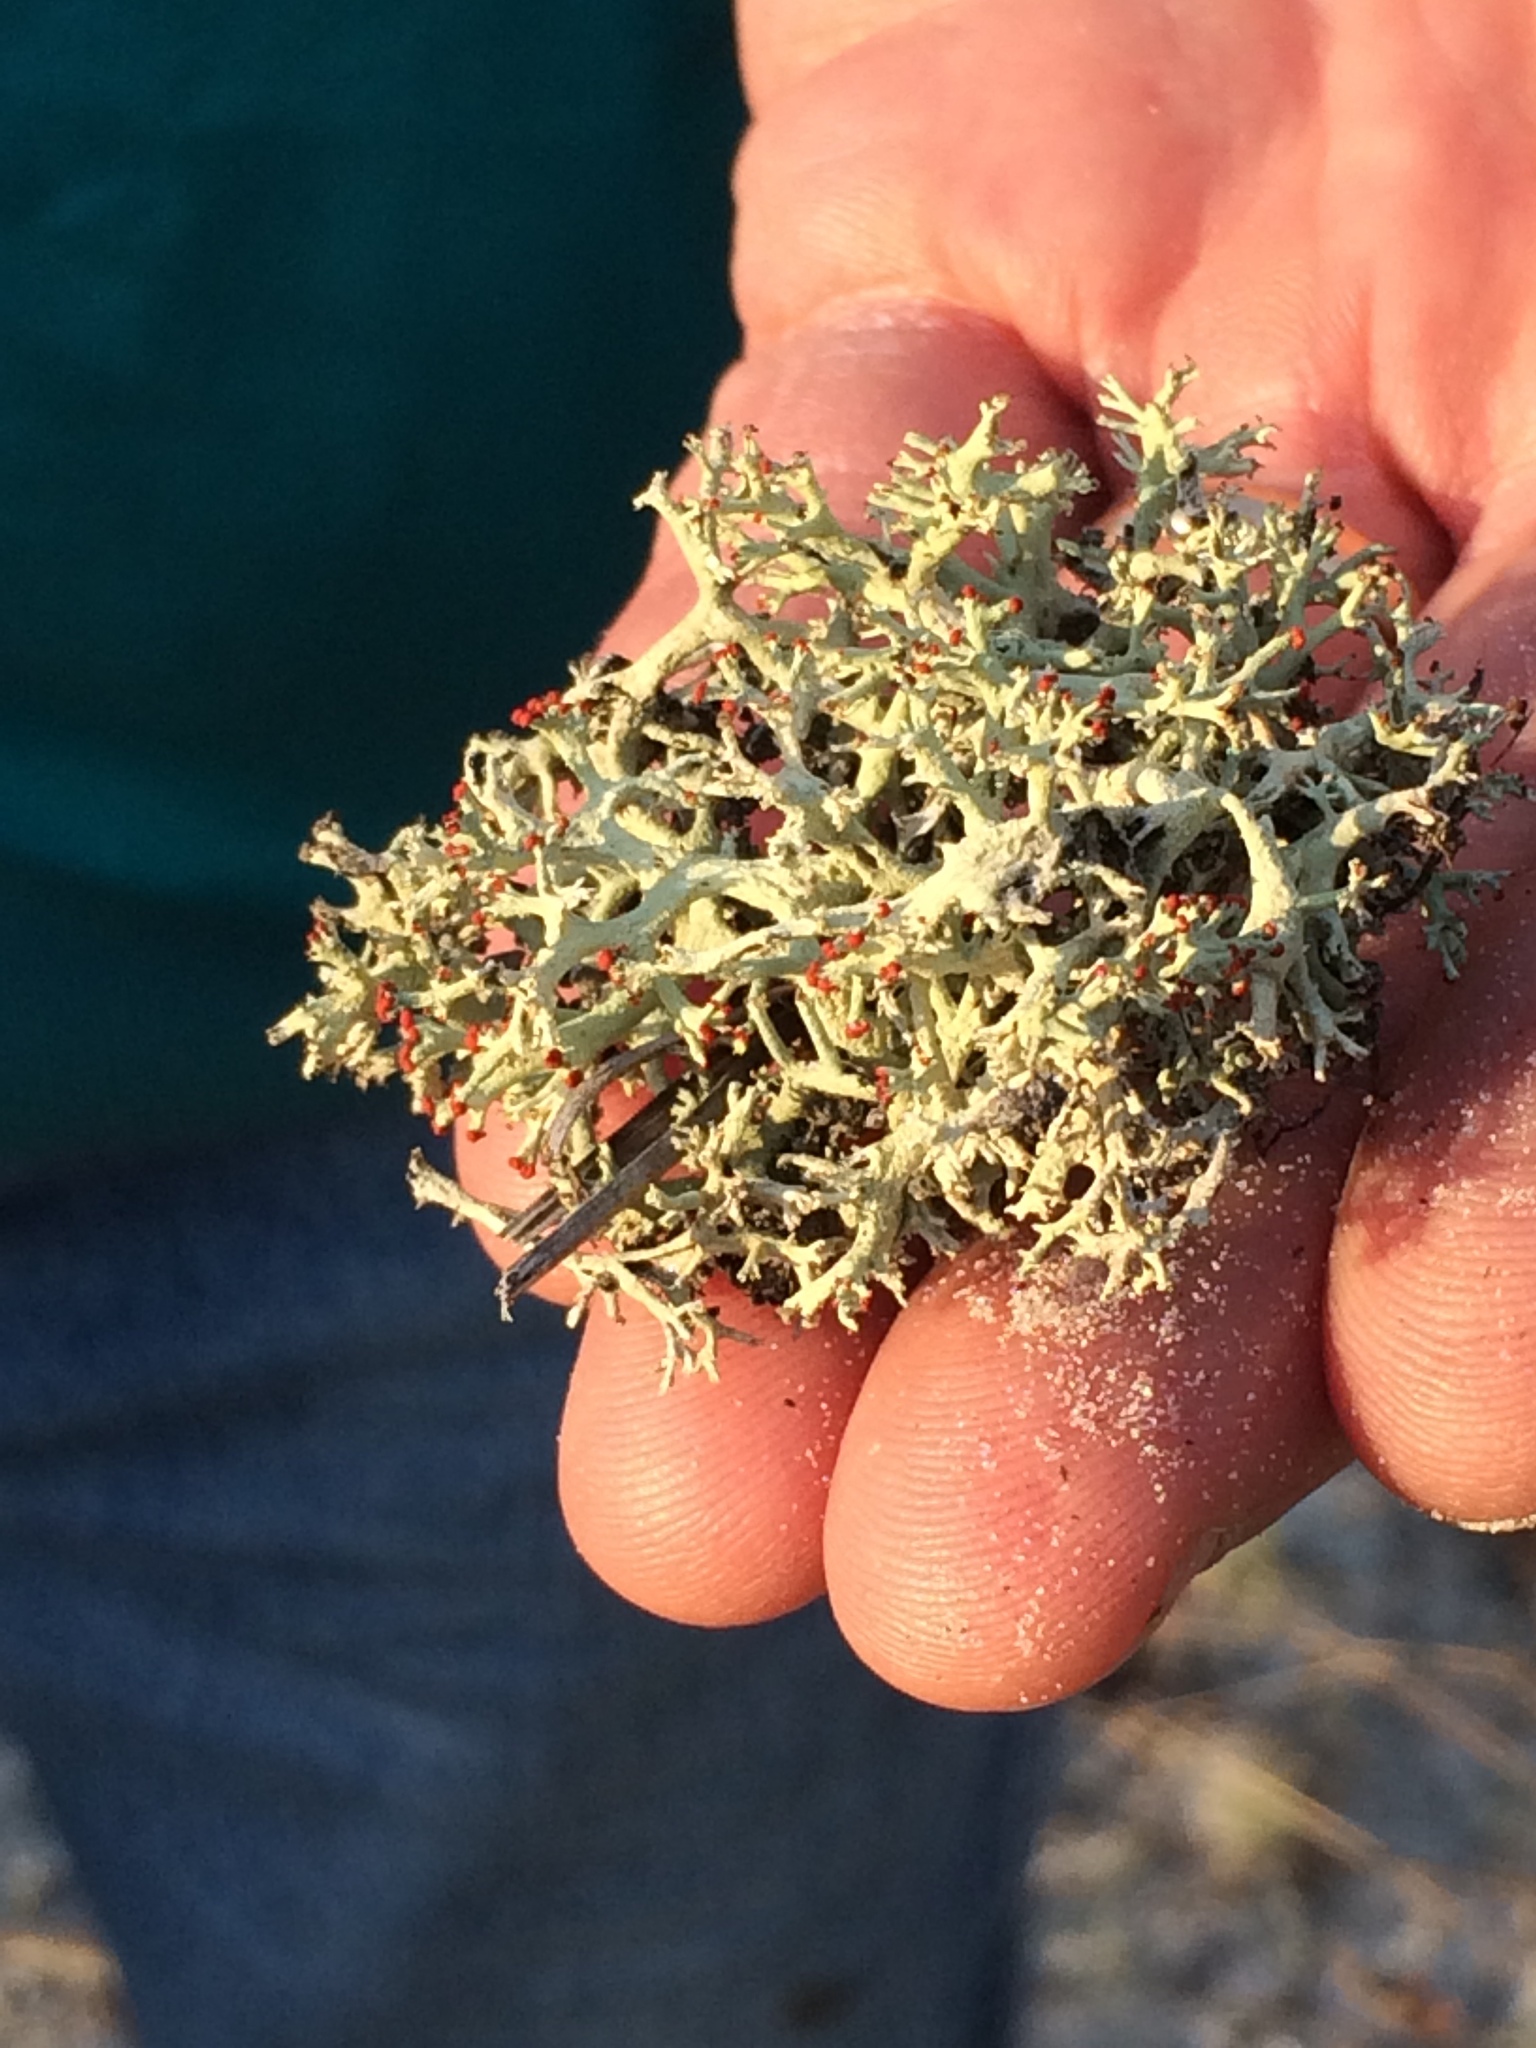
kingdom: Fungi
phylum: Ascomycota
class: Lecanoromycetes
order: Lecanorales
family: Cladoniaceae
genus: Cladonia
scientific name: Cladonia leporina
